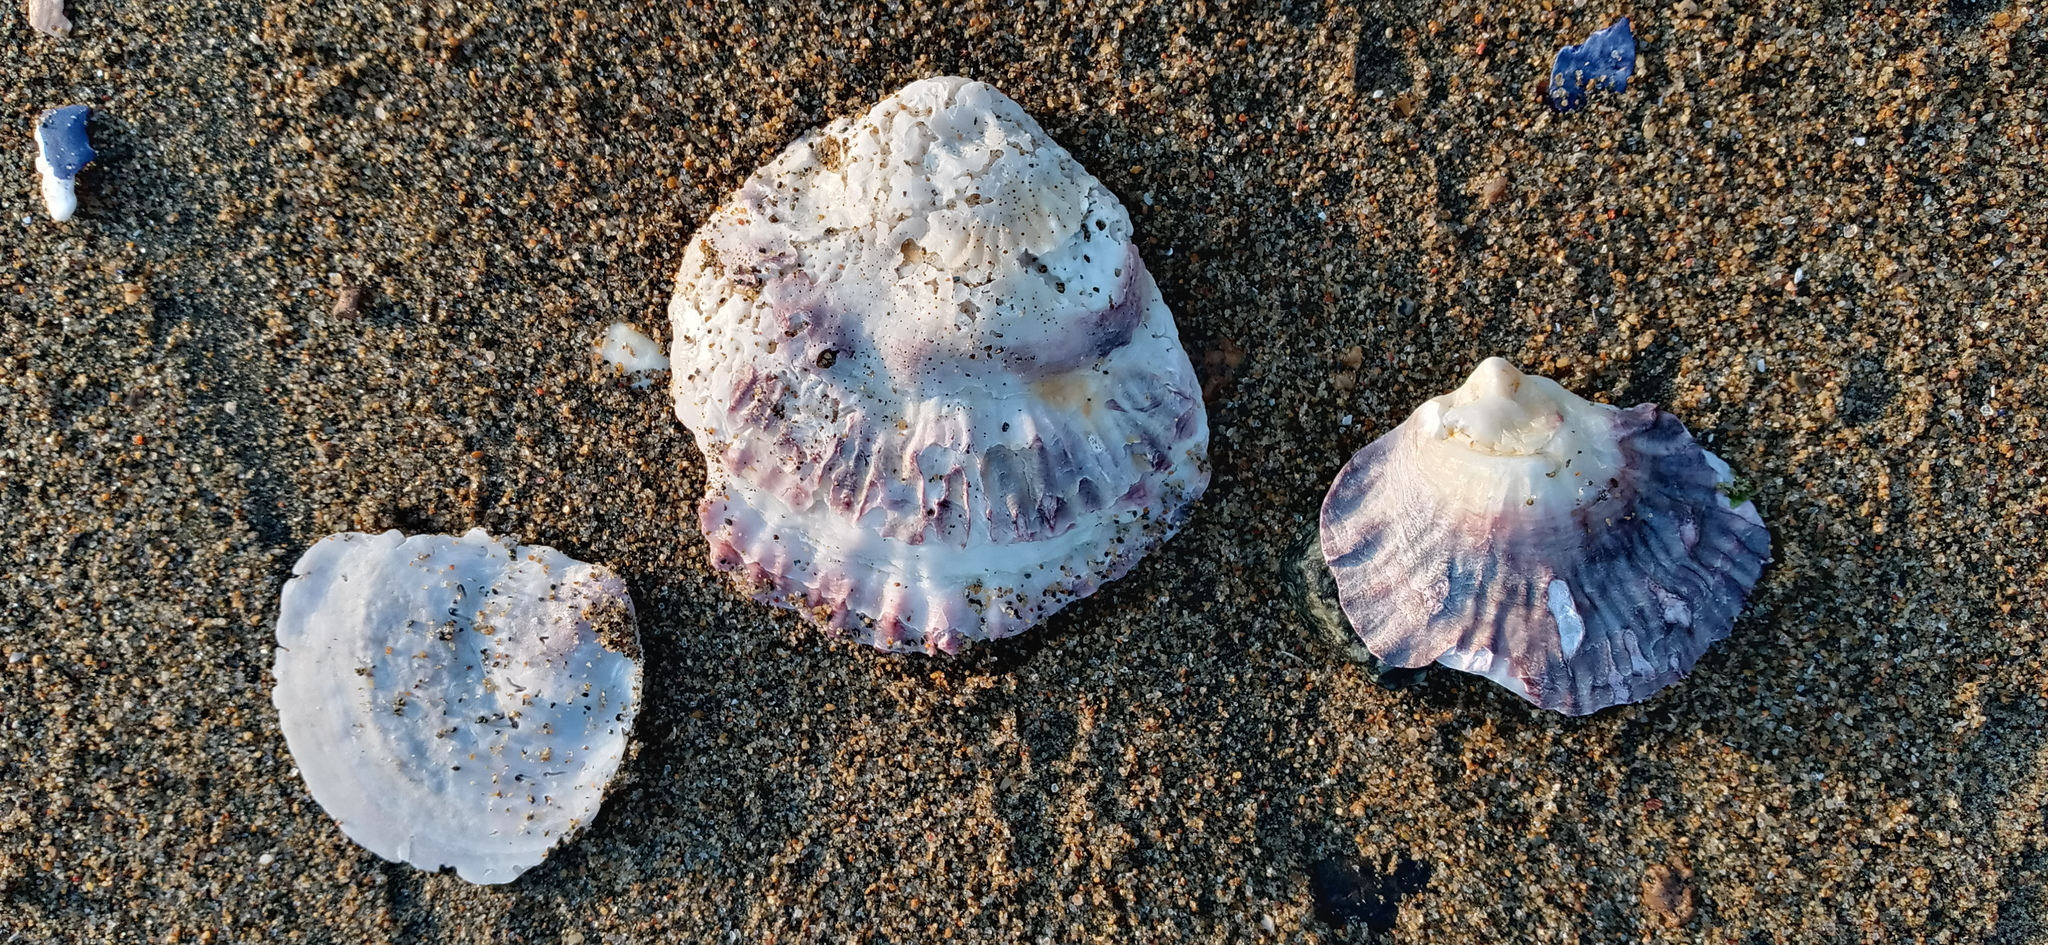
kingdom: Animalia
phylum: Mollusca
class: Bivalvia
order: Ostreida
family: Ostreidae
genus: Ostrea
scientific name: Ostrea edulis
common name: Flat oyster
